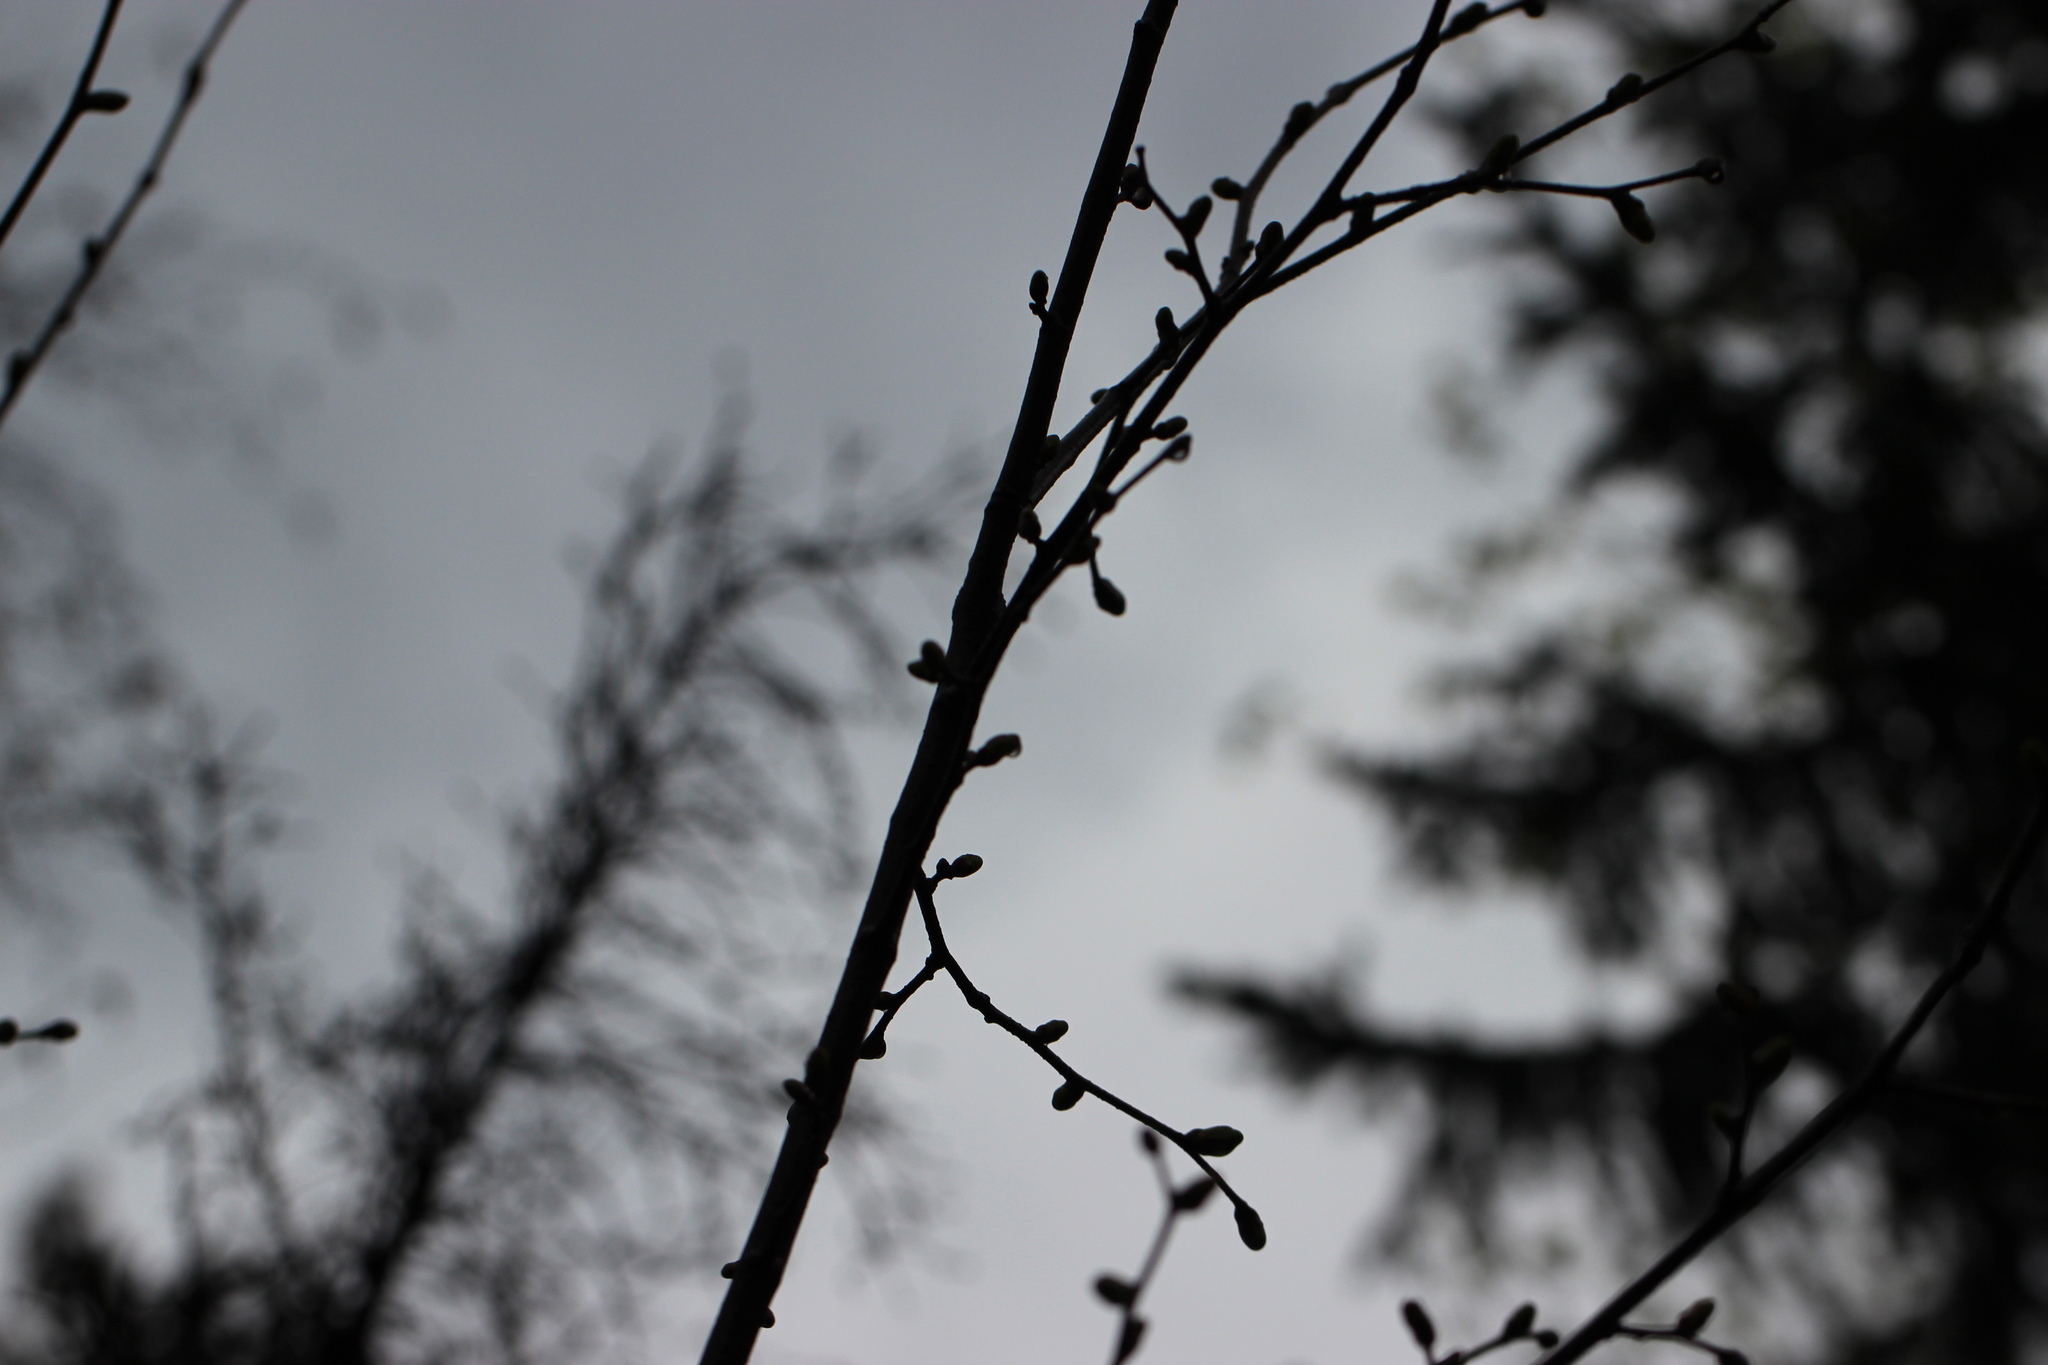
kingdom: Plantae
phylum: Tracheophyta
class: Magnoliopsida
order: Malvales
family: Malvaceae
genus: Tilia
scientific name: Tilia cordata
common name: Small-leaved lime
